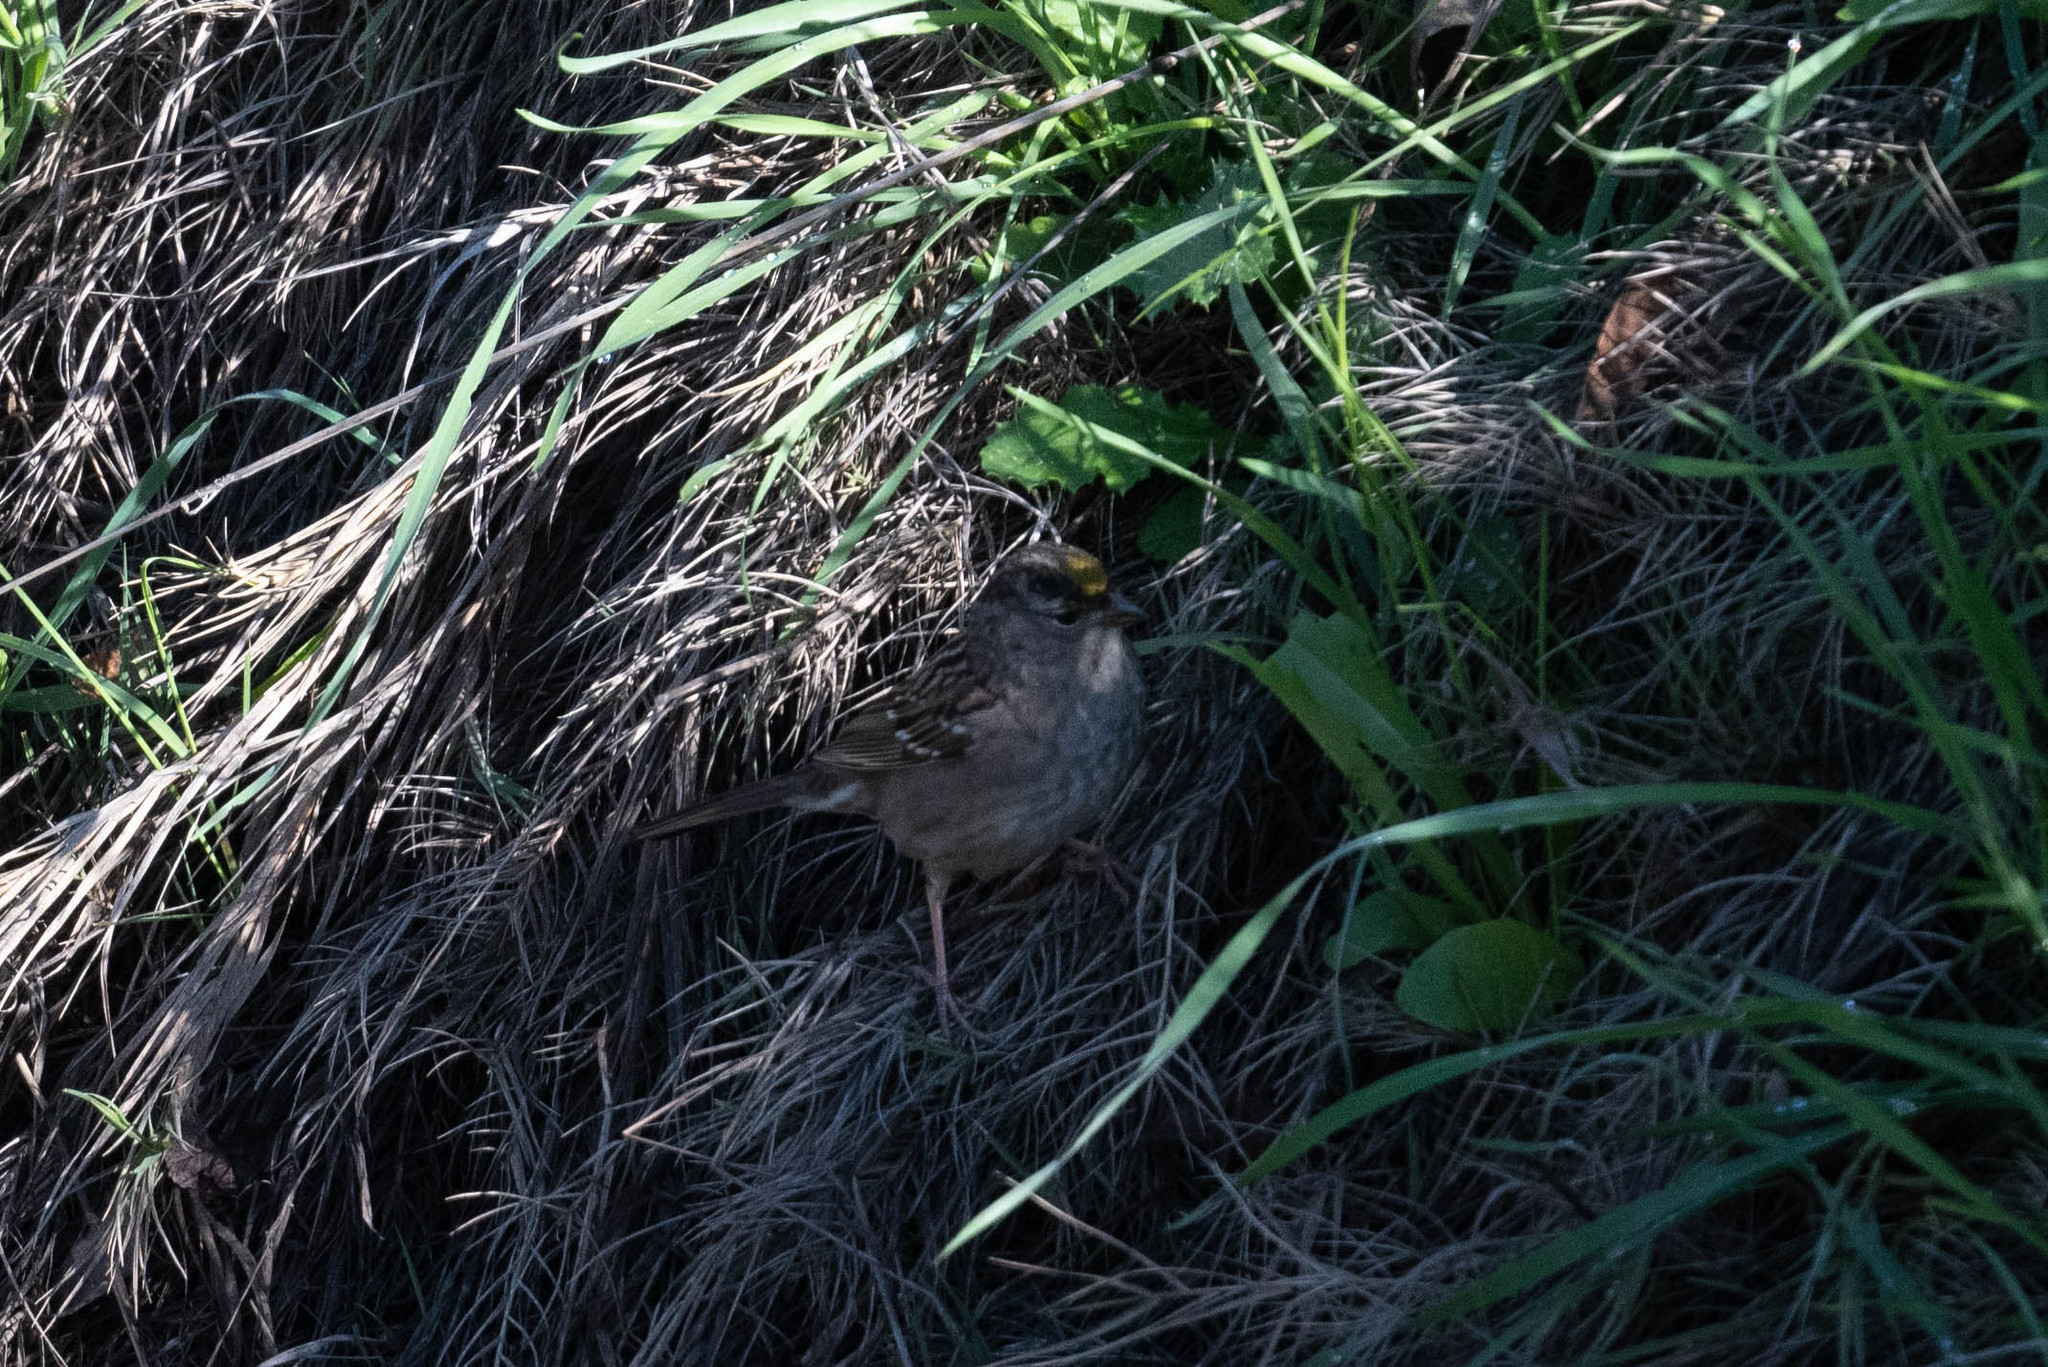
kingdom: Animalia
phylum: Chordata
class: Aves
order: Passeriformes
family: Passerellidae
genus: Zonotrichia
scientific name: Zonotrichia atricapilla
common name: Golden-crowned sparrow
